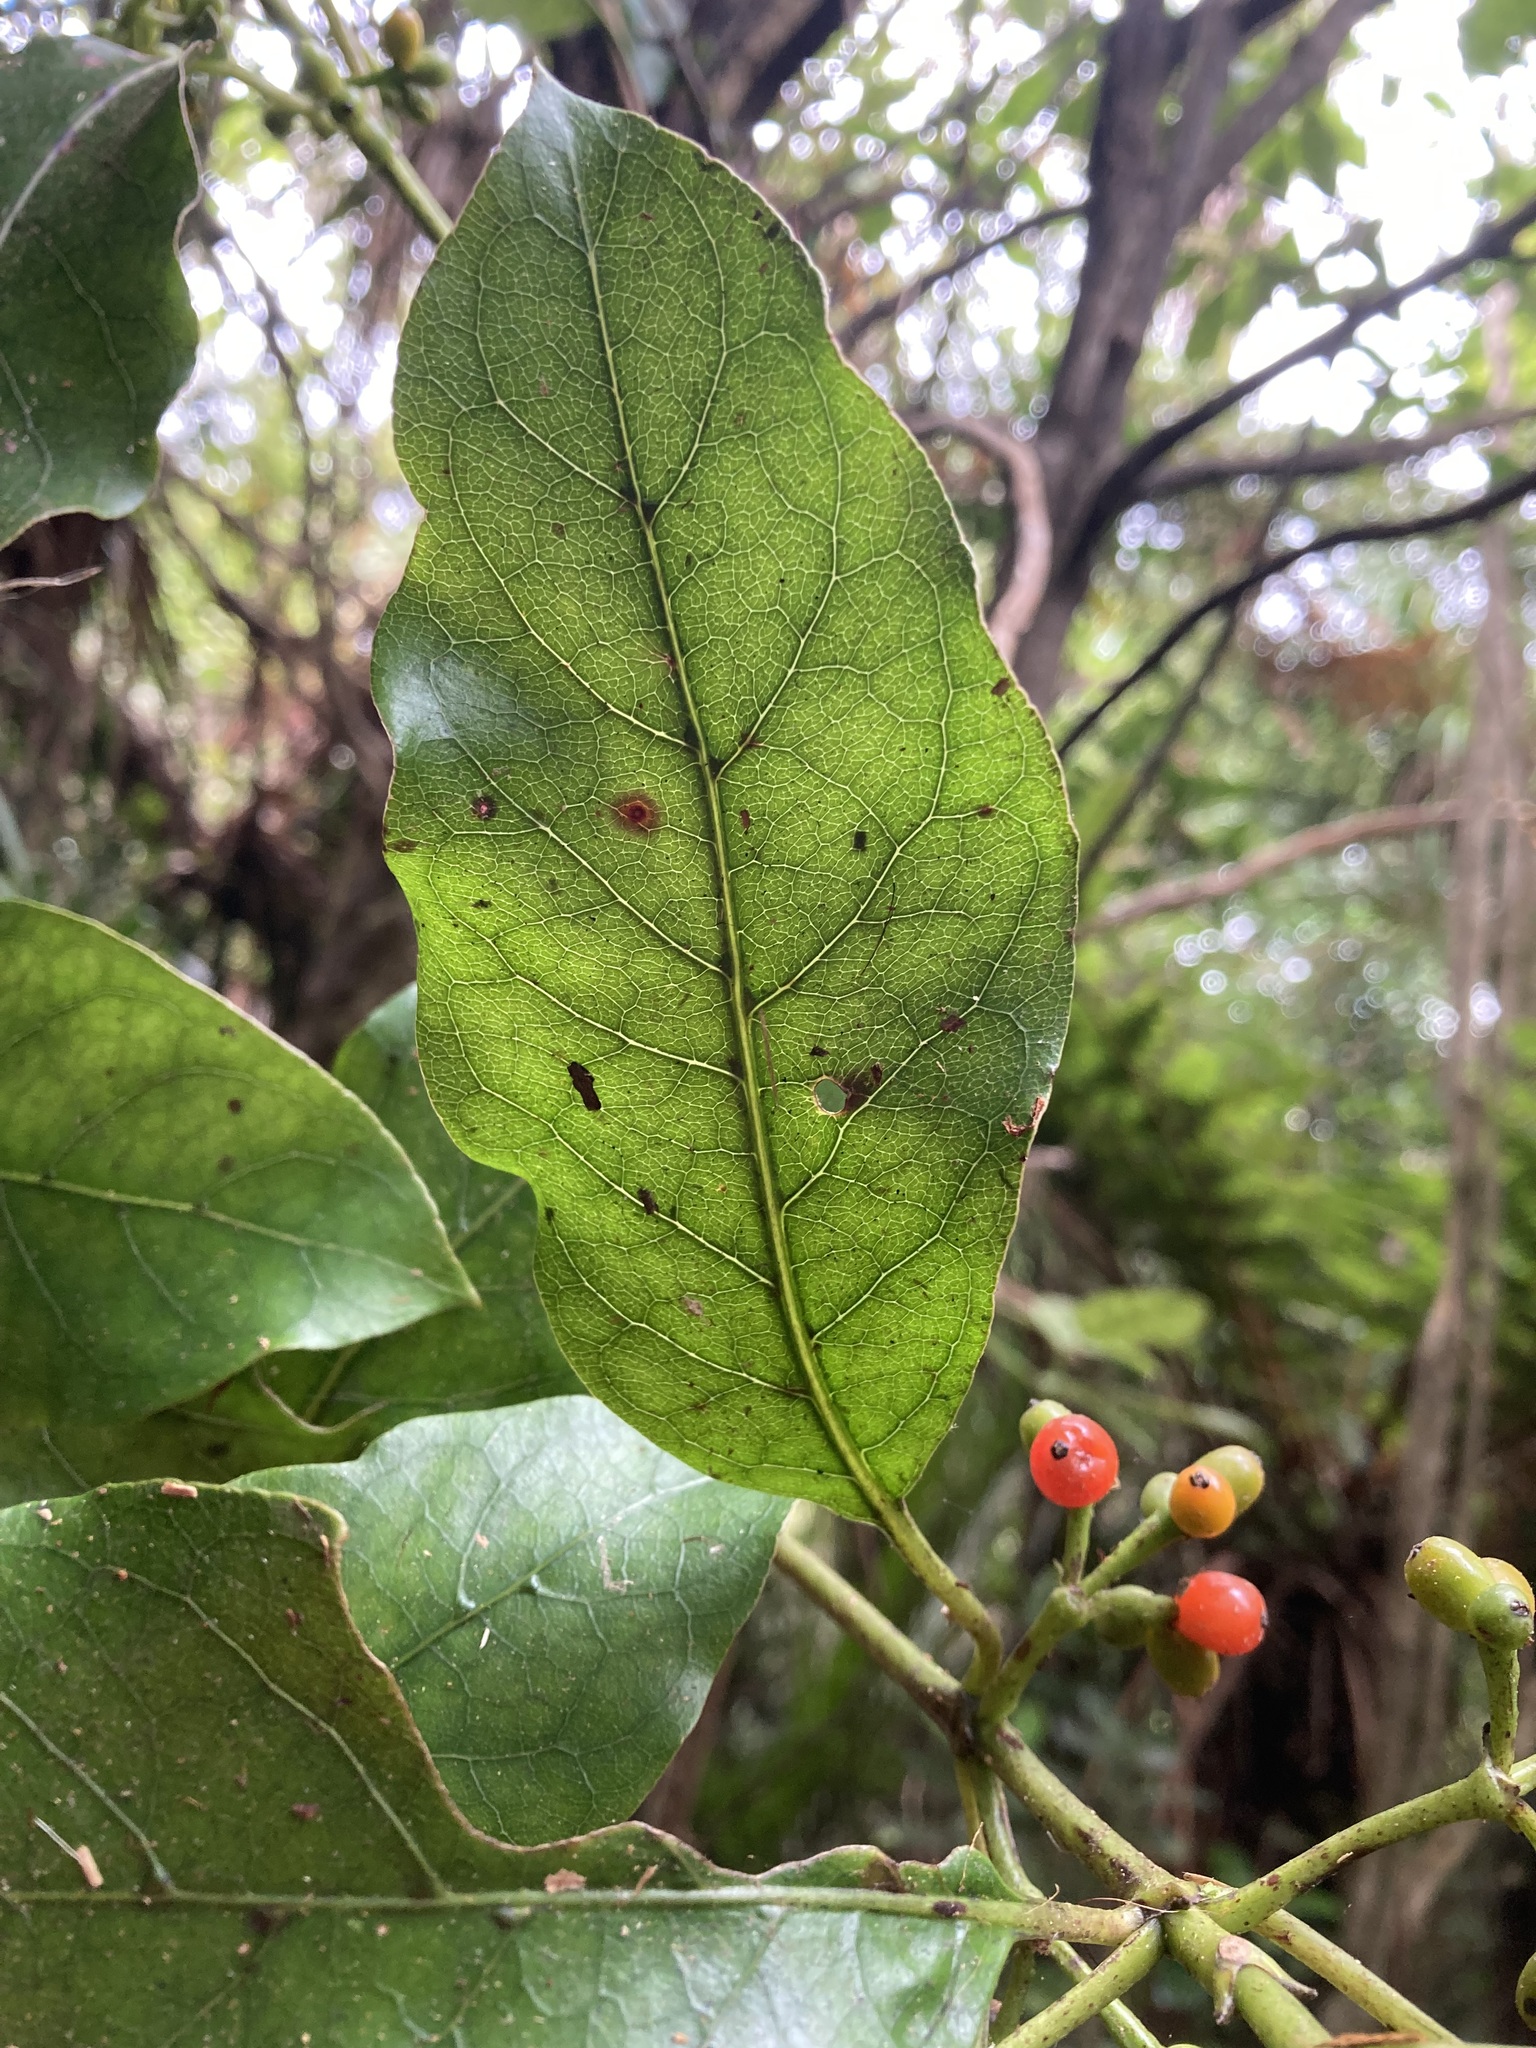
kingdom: Plantae
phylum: Tracheophyta
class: Magnoliopsida
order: Gentianales
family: Rubiaceae
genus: Coprosma
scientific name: Coprosma autumnalis
